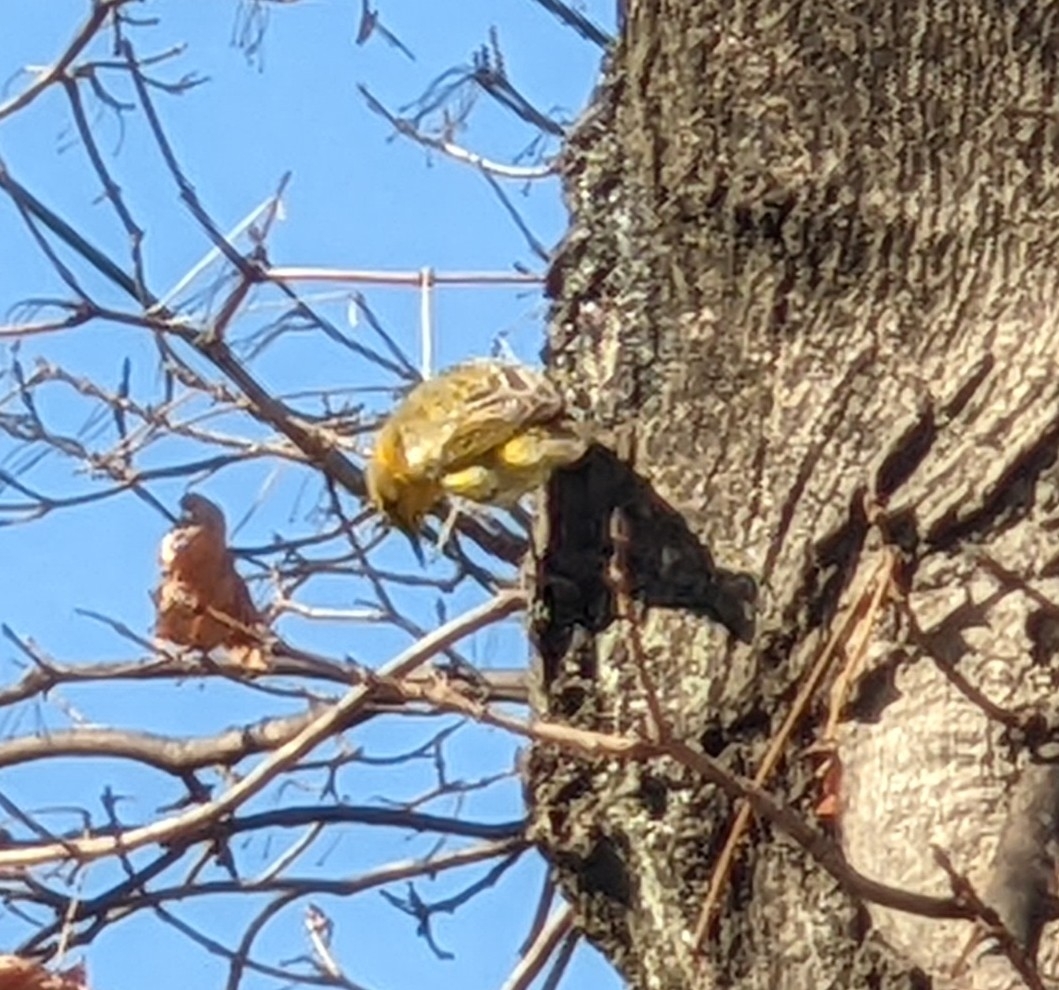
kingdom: Animalia
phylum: Chordata
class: Aves
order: Passeriformes
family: Parulidae
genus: Setophaga
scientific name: Setophaga tigrina
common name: Cape may warbler
